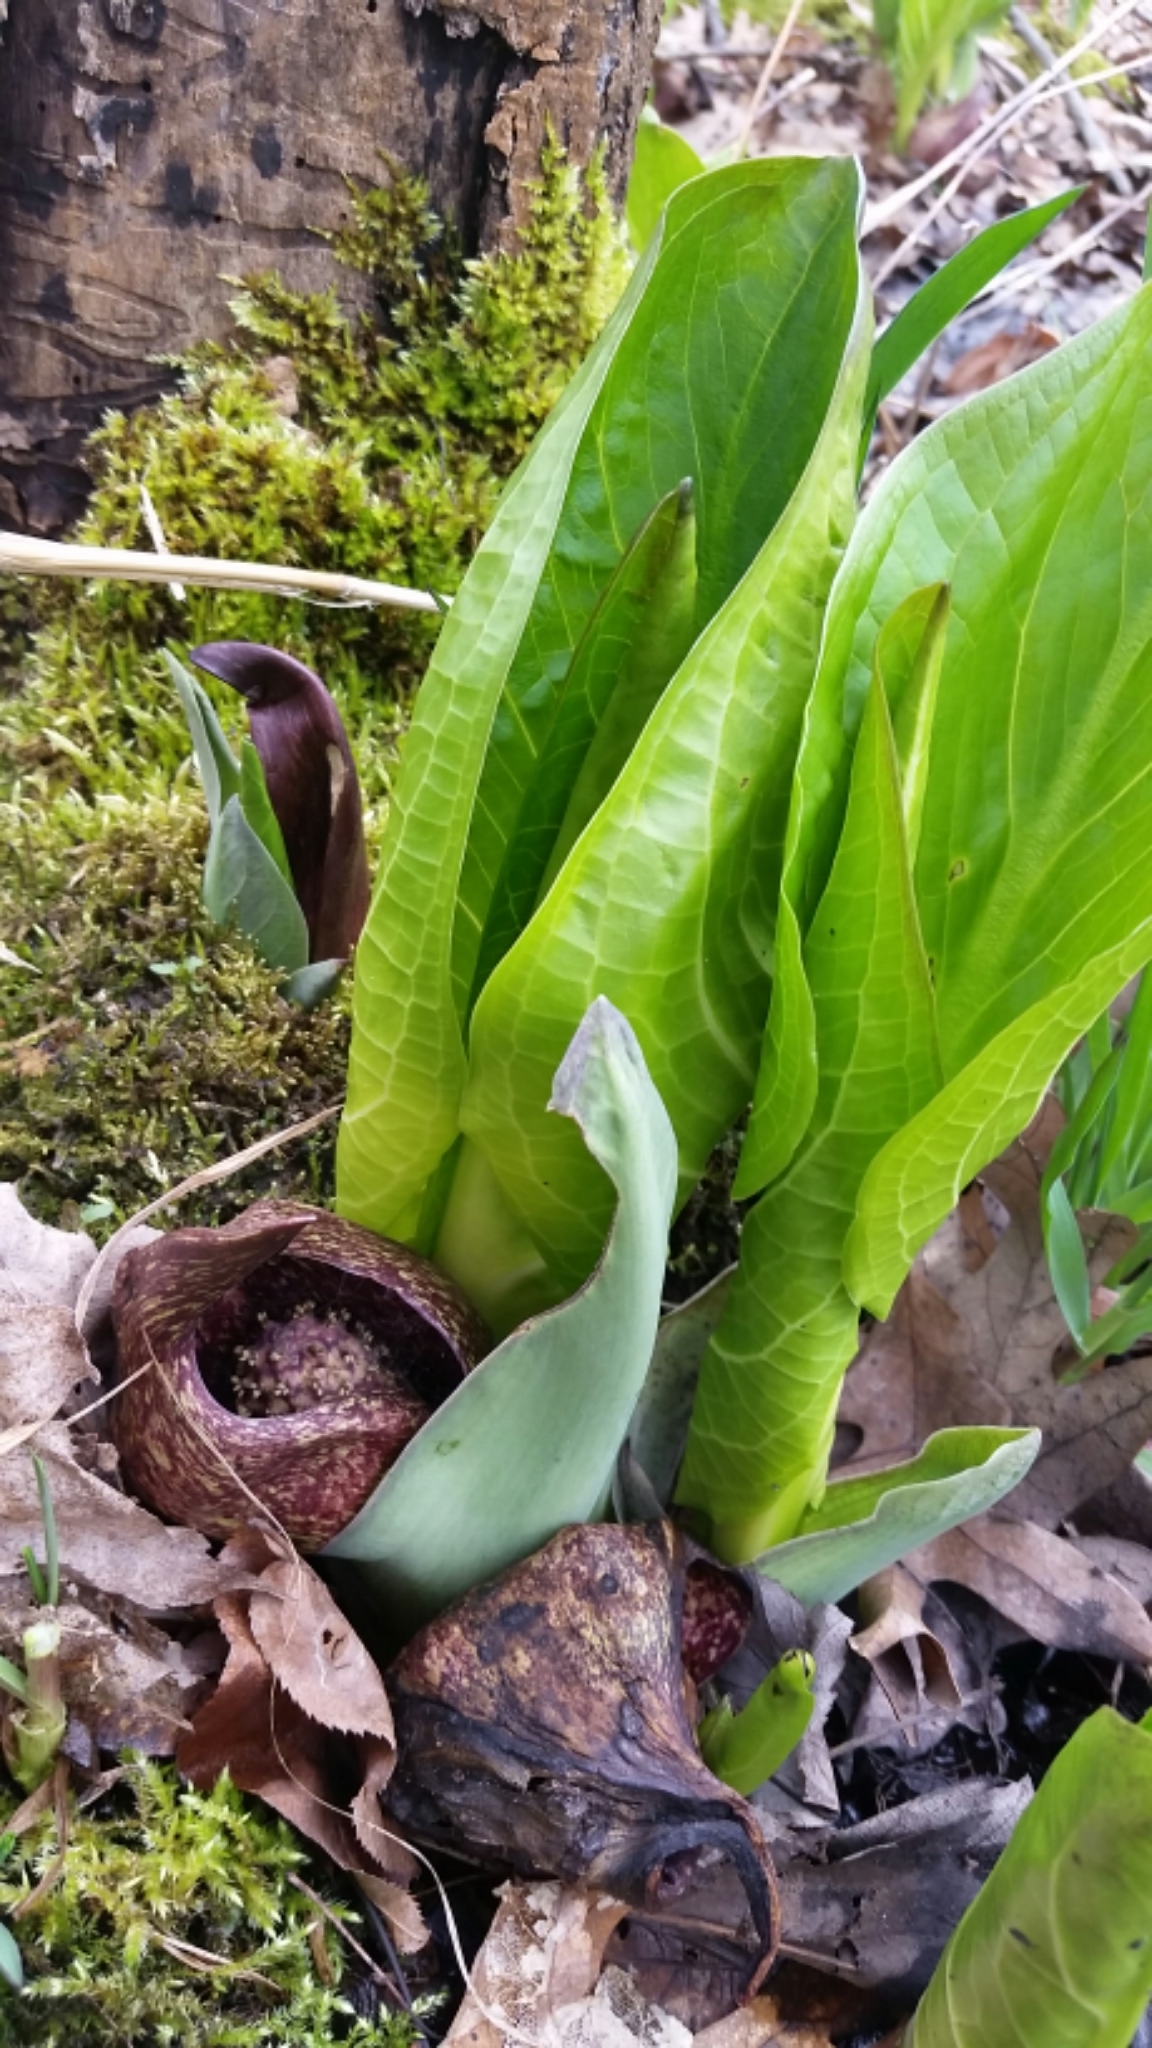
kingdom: Plantae
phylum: Tracheophyta
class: Liliopsida
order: Alismatales
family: Araceae
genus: Symplocarpus
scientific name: Symplocarpus foetidus
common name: Eastern skunk cabbage
